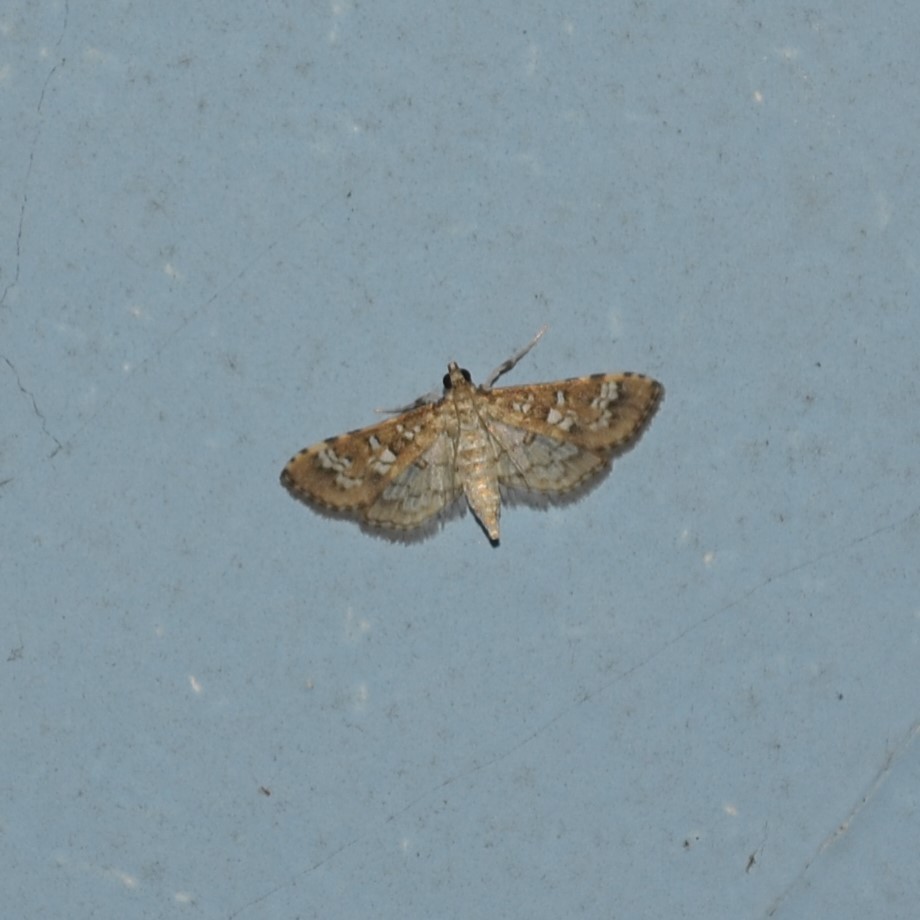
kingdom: Animalia
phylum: Arthropoda
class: Insecta
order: Lepidoptera
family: Crambidae
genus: Samea
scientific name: Samea multiplicalis
